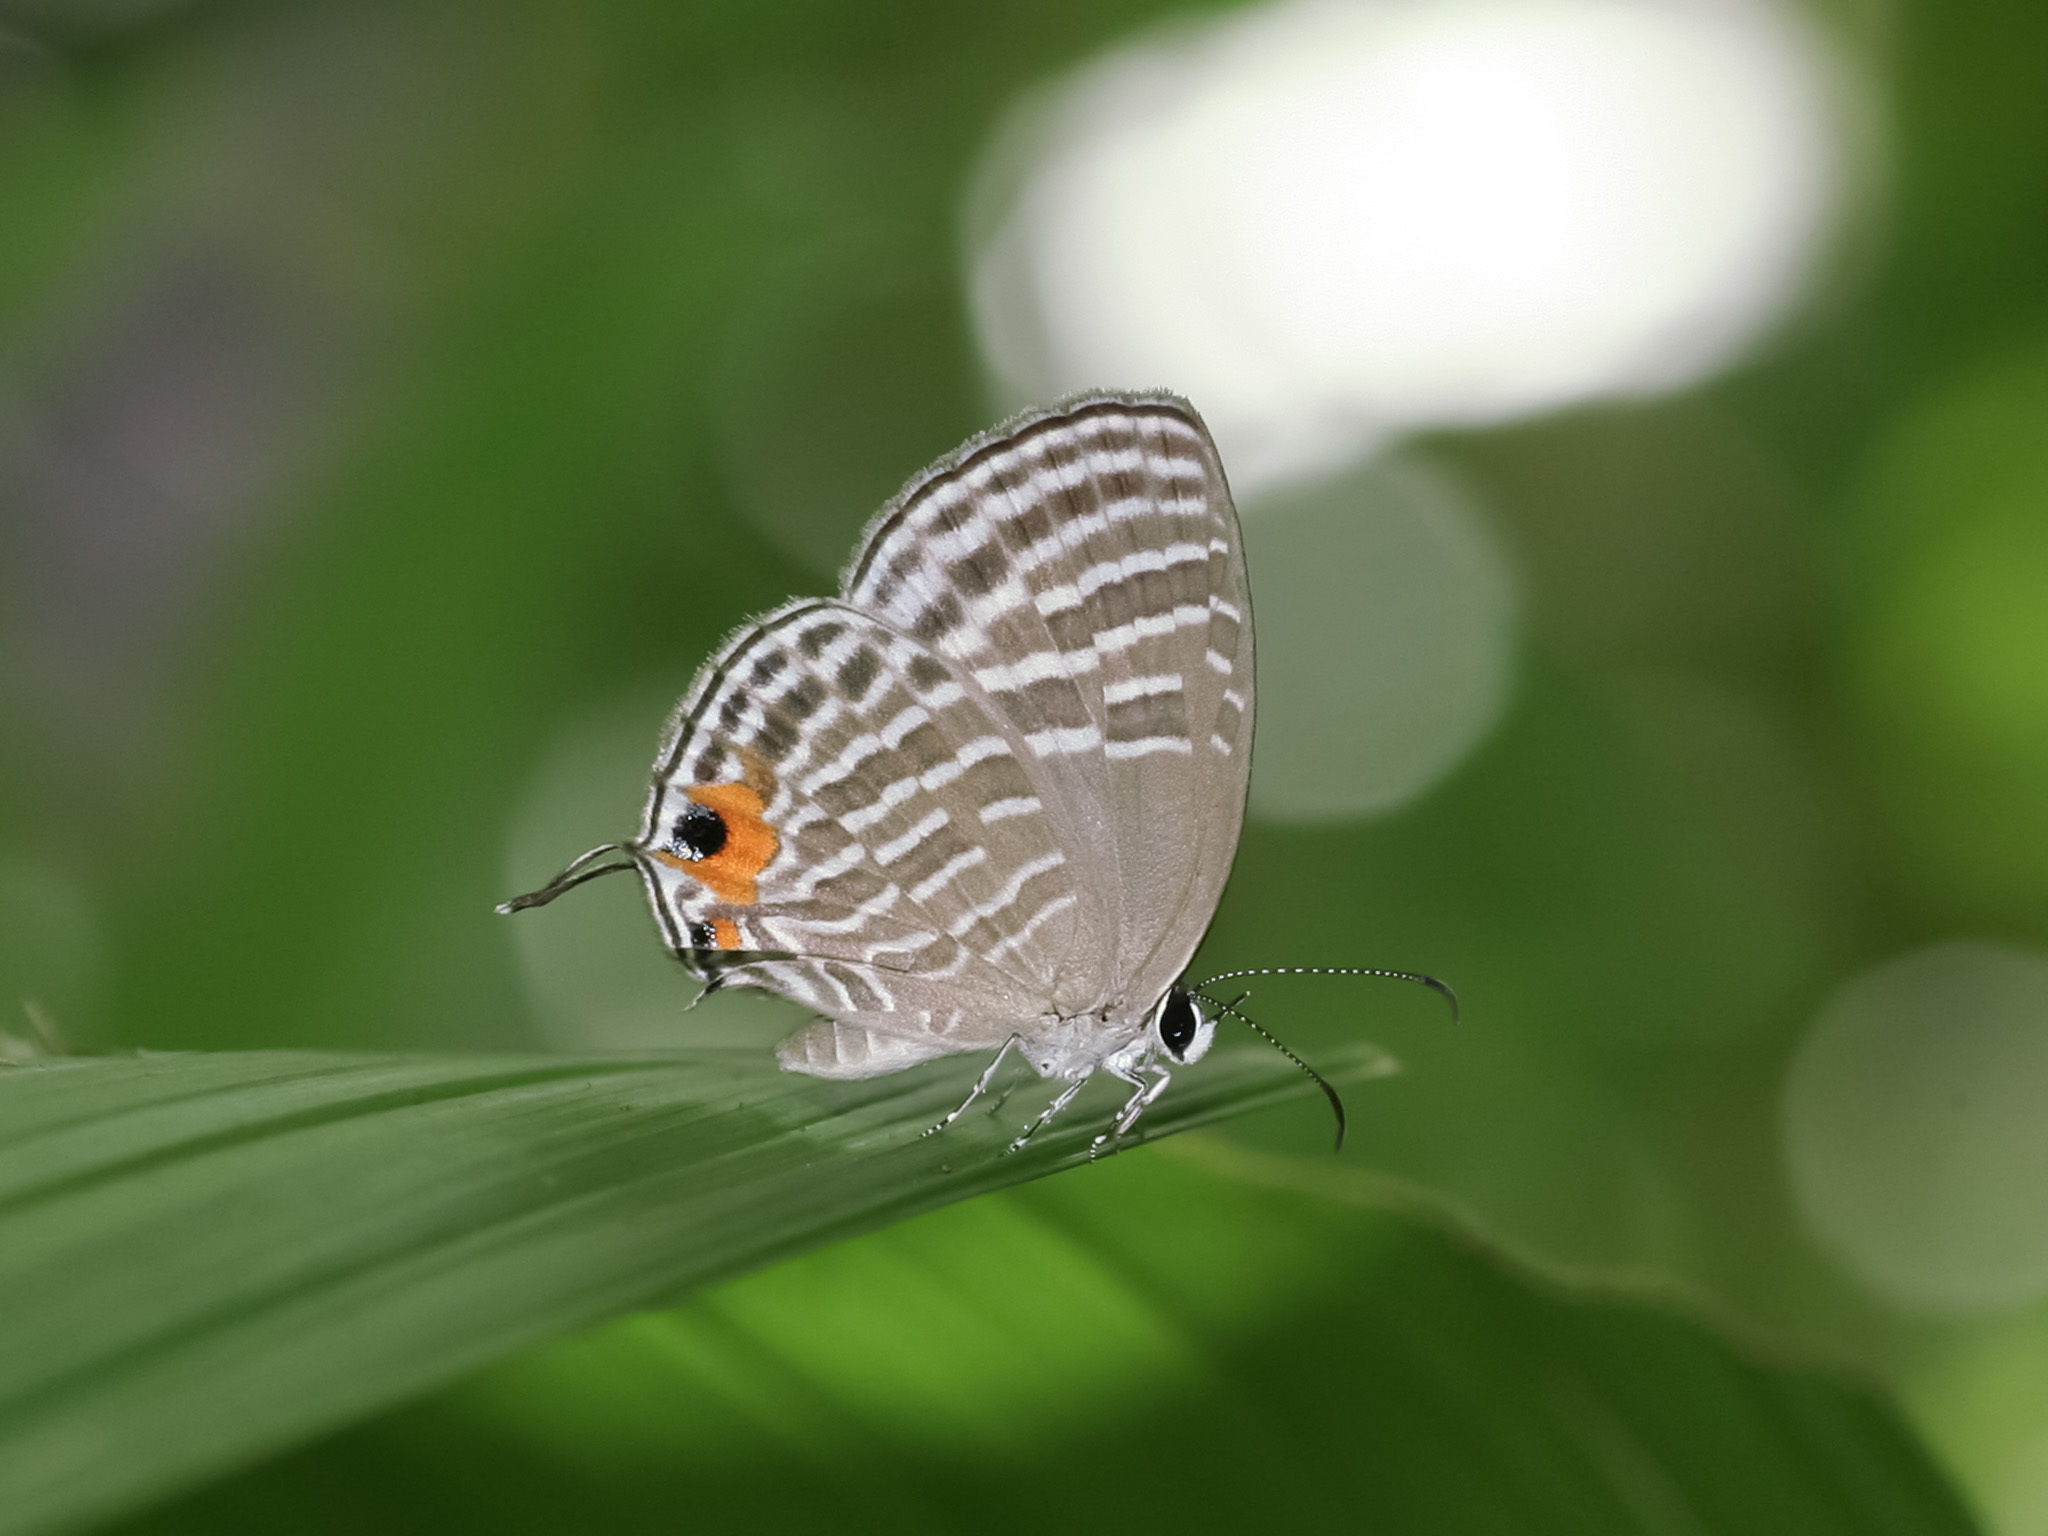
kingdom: Animalia
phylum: Arthropoda
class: Insecta
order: Lepidoptera
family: Lycaenidae
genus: Jamides
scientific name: Jamides celeno
